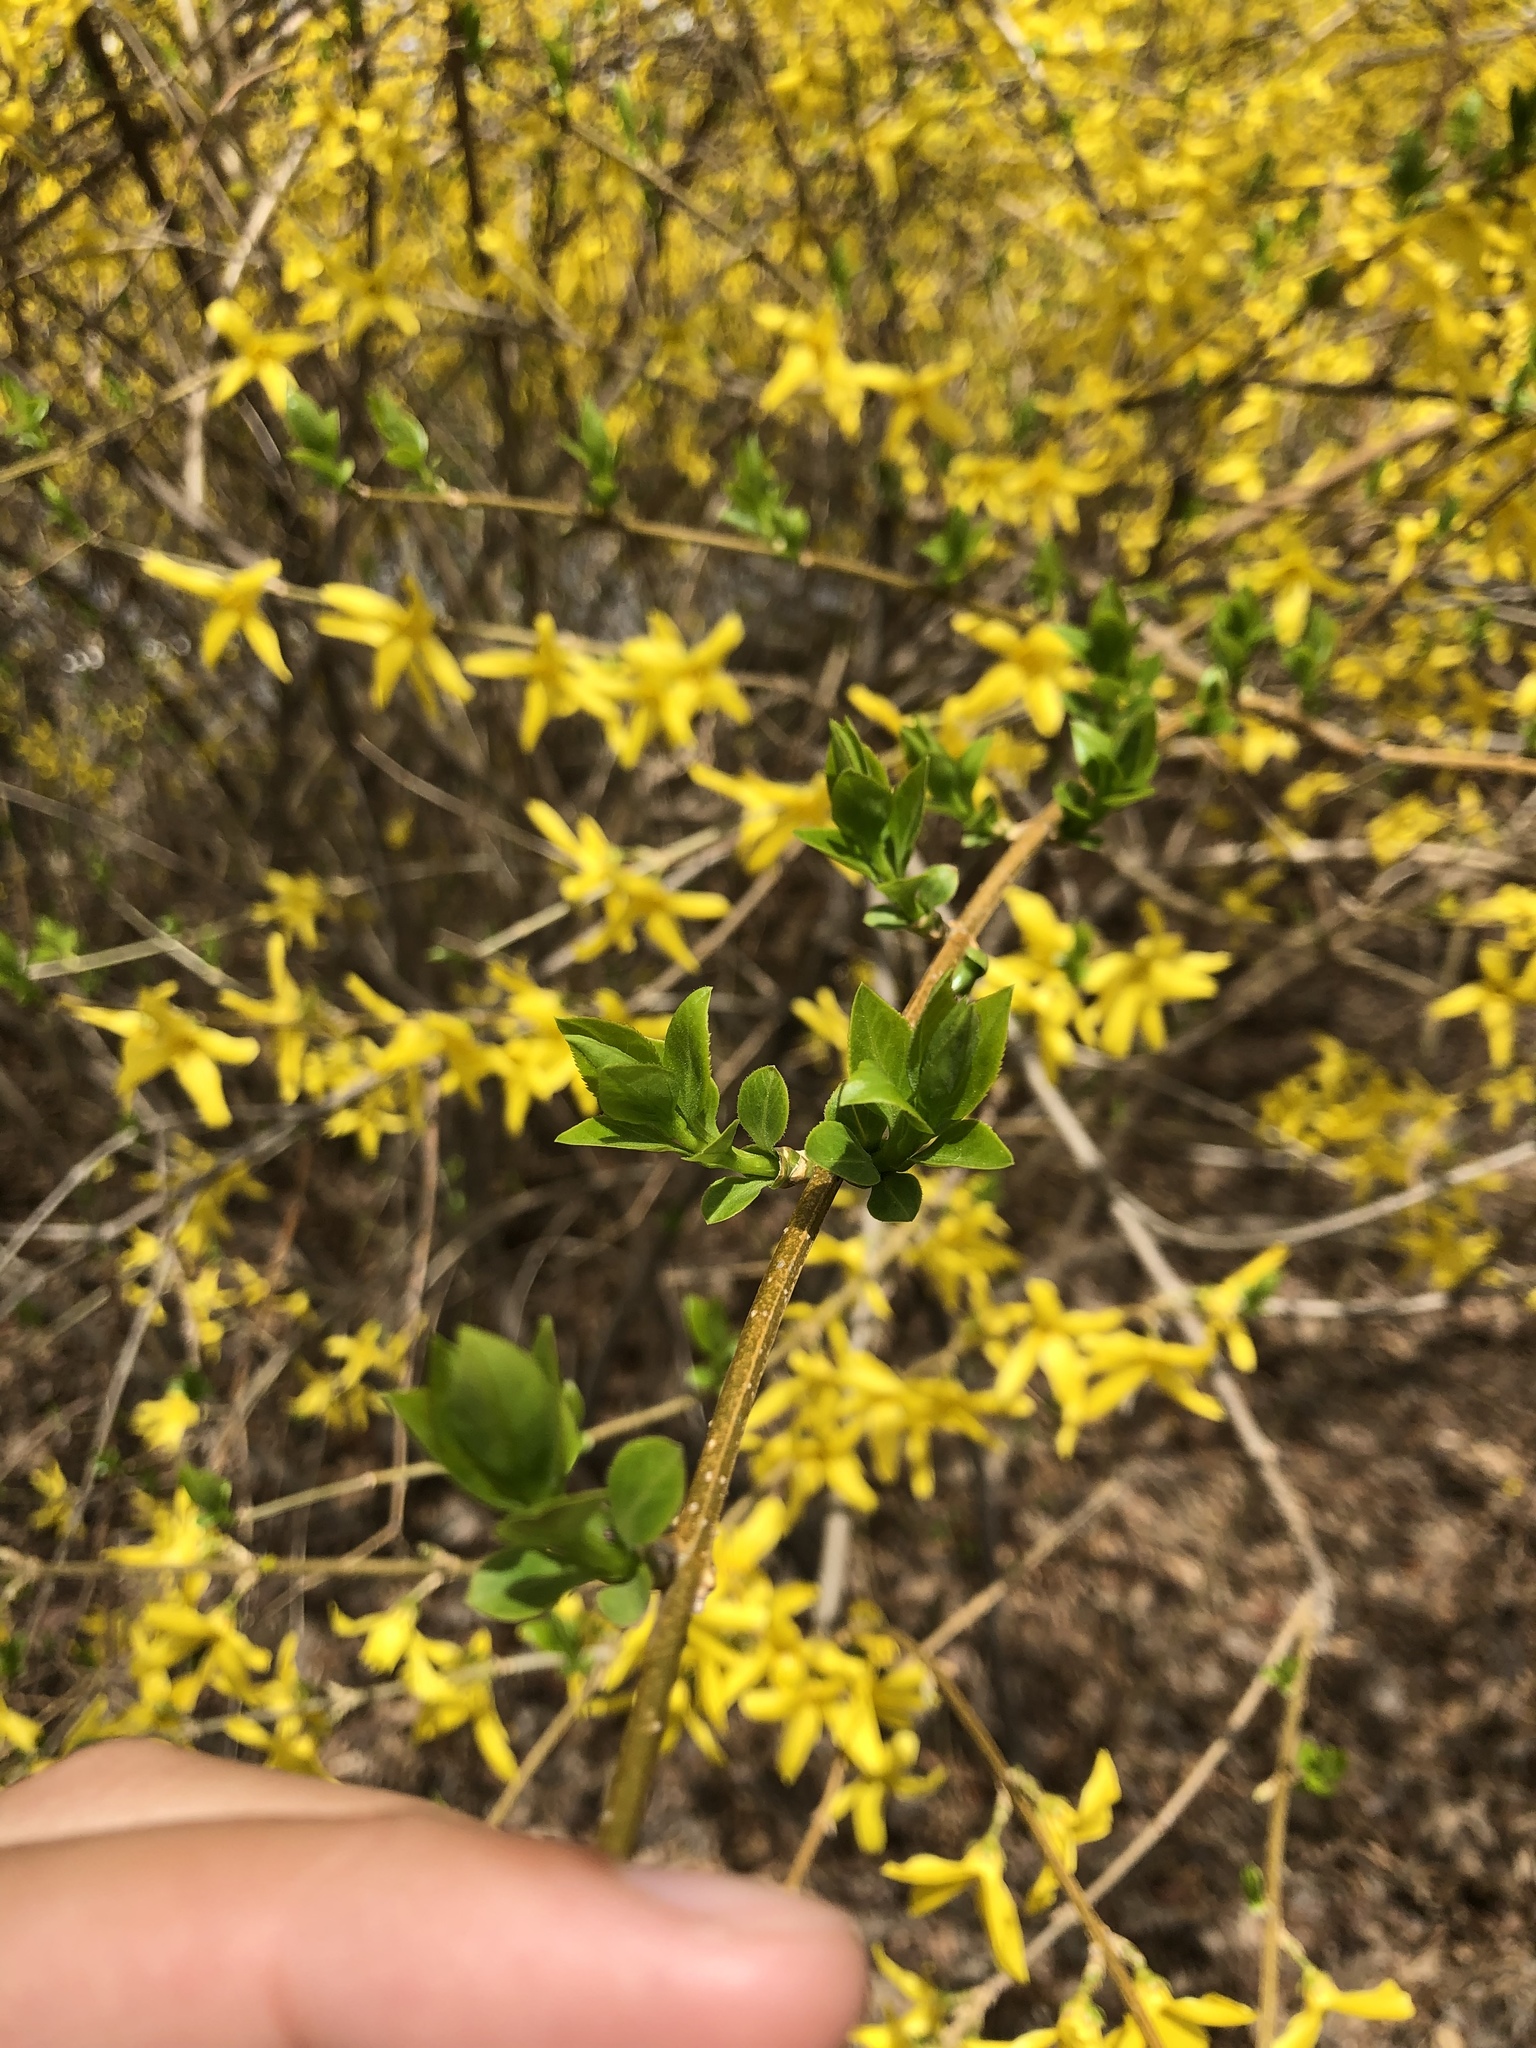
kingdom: Plantae
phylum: Tracheophyta
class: Magnoliopsida
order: Lamiales
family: Oleaceae
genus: Forsythia
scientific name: Forsythia
